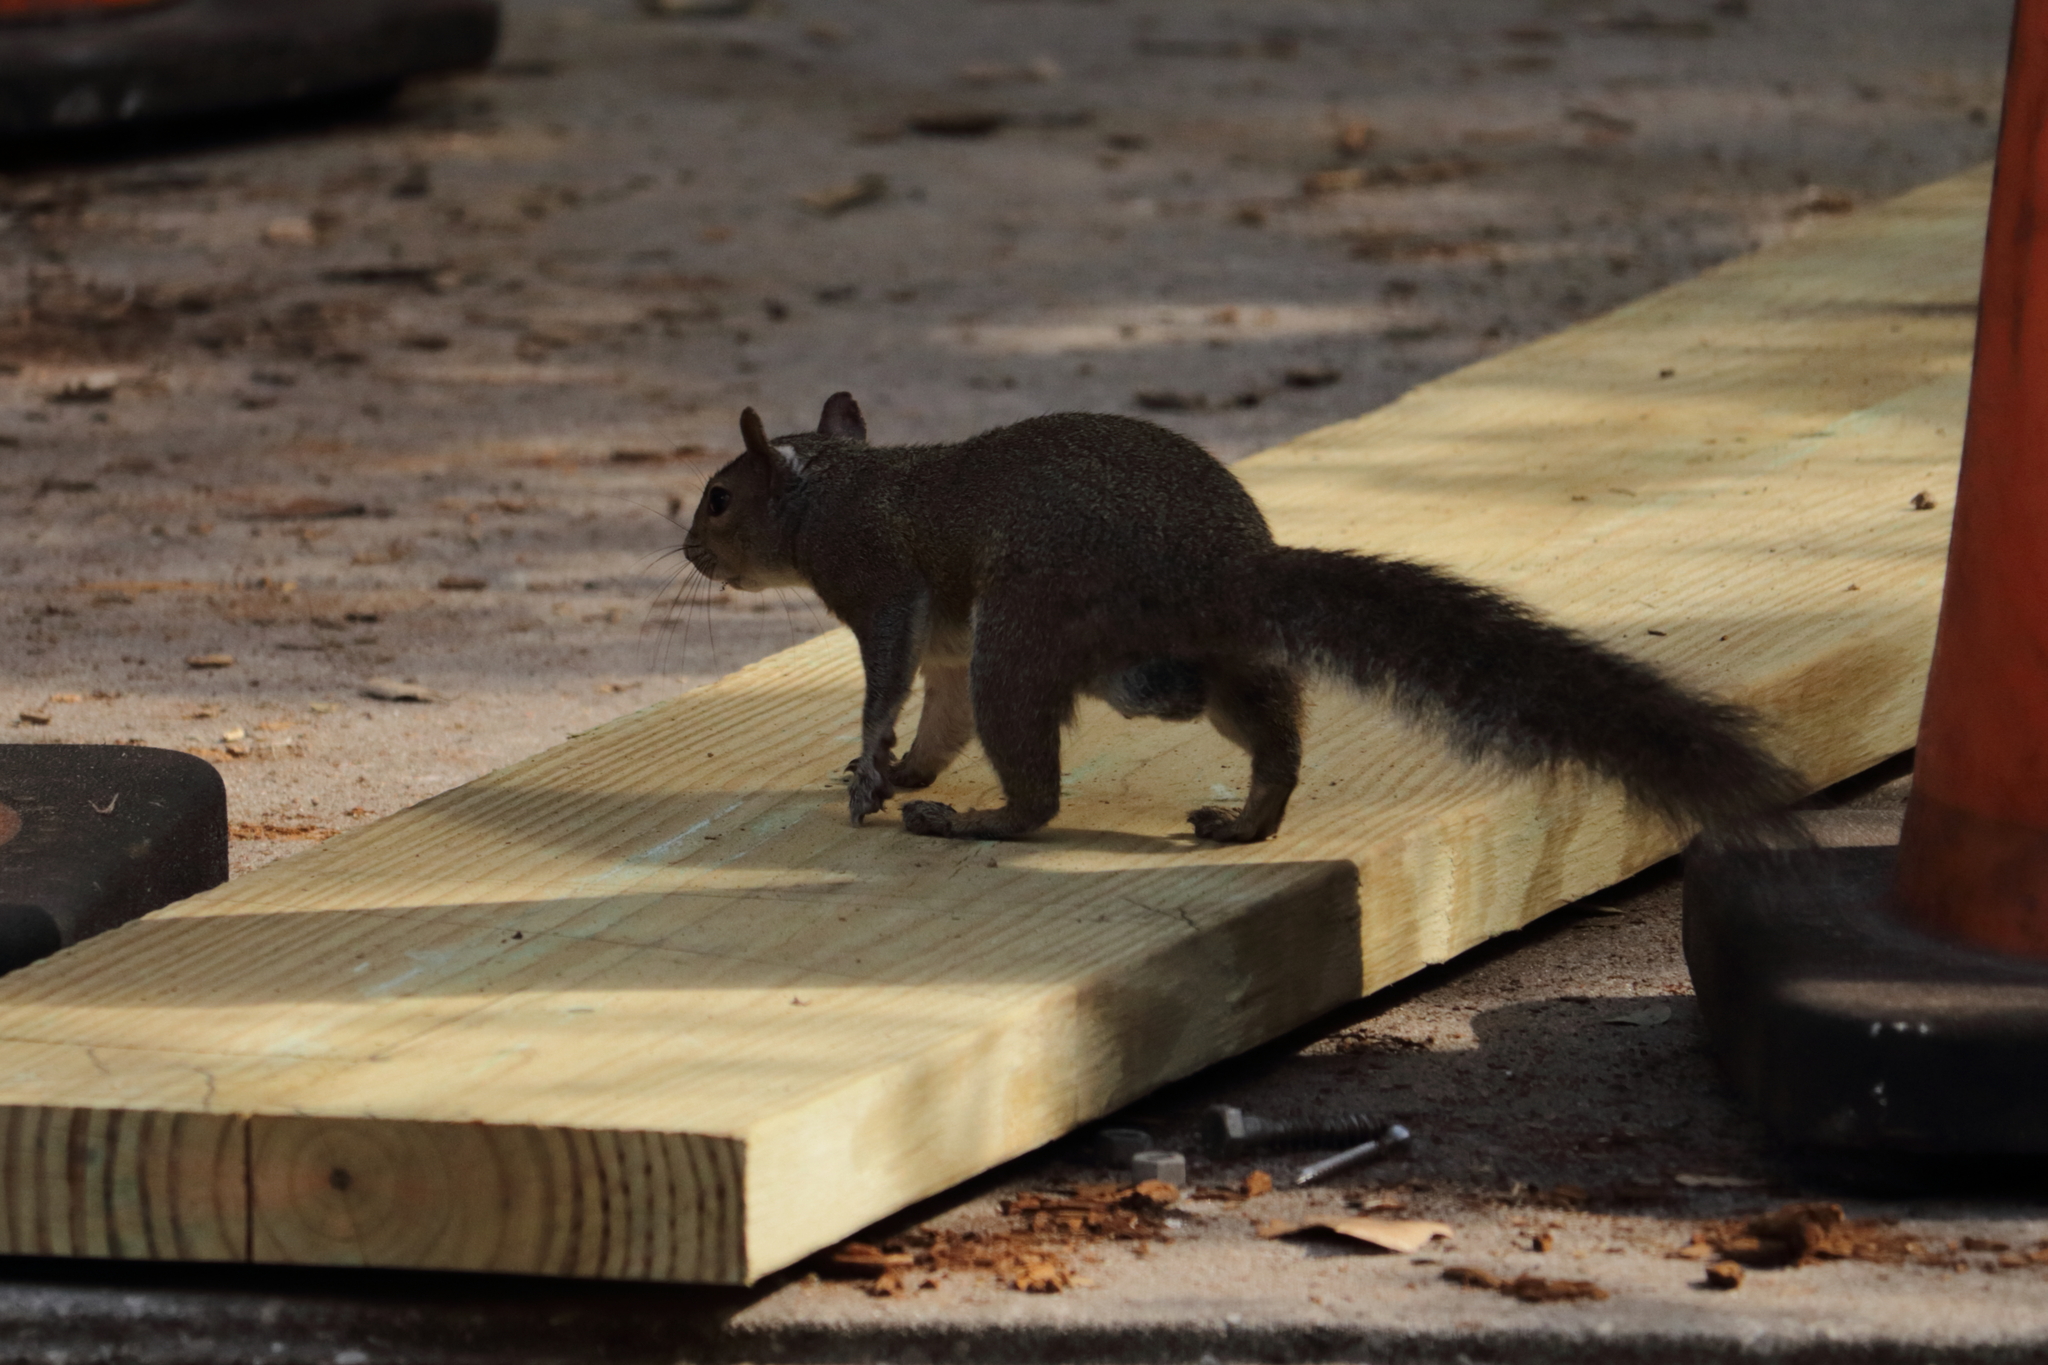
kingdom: Animalia
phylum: Chordata
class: Mammalia
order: Rodentia
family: Sciuridae
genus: Sciurus
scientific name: Sciurus carolinensis
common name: Eastern gray squirrel
